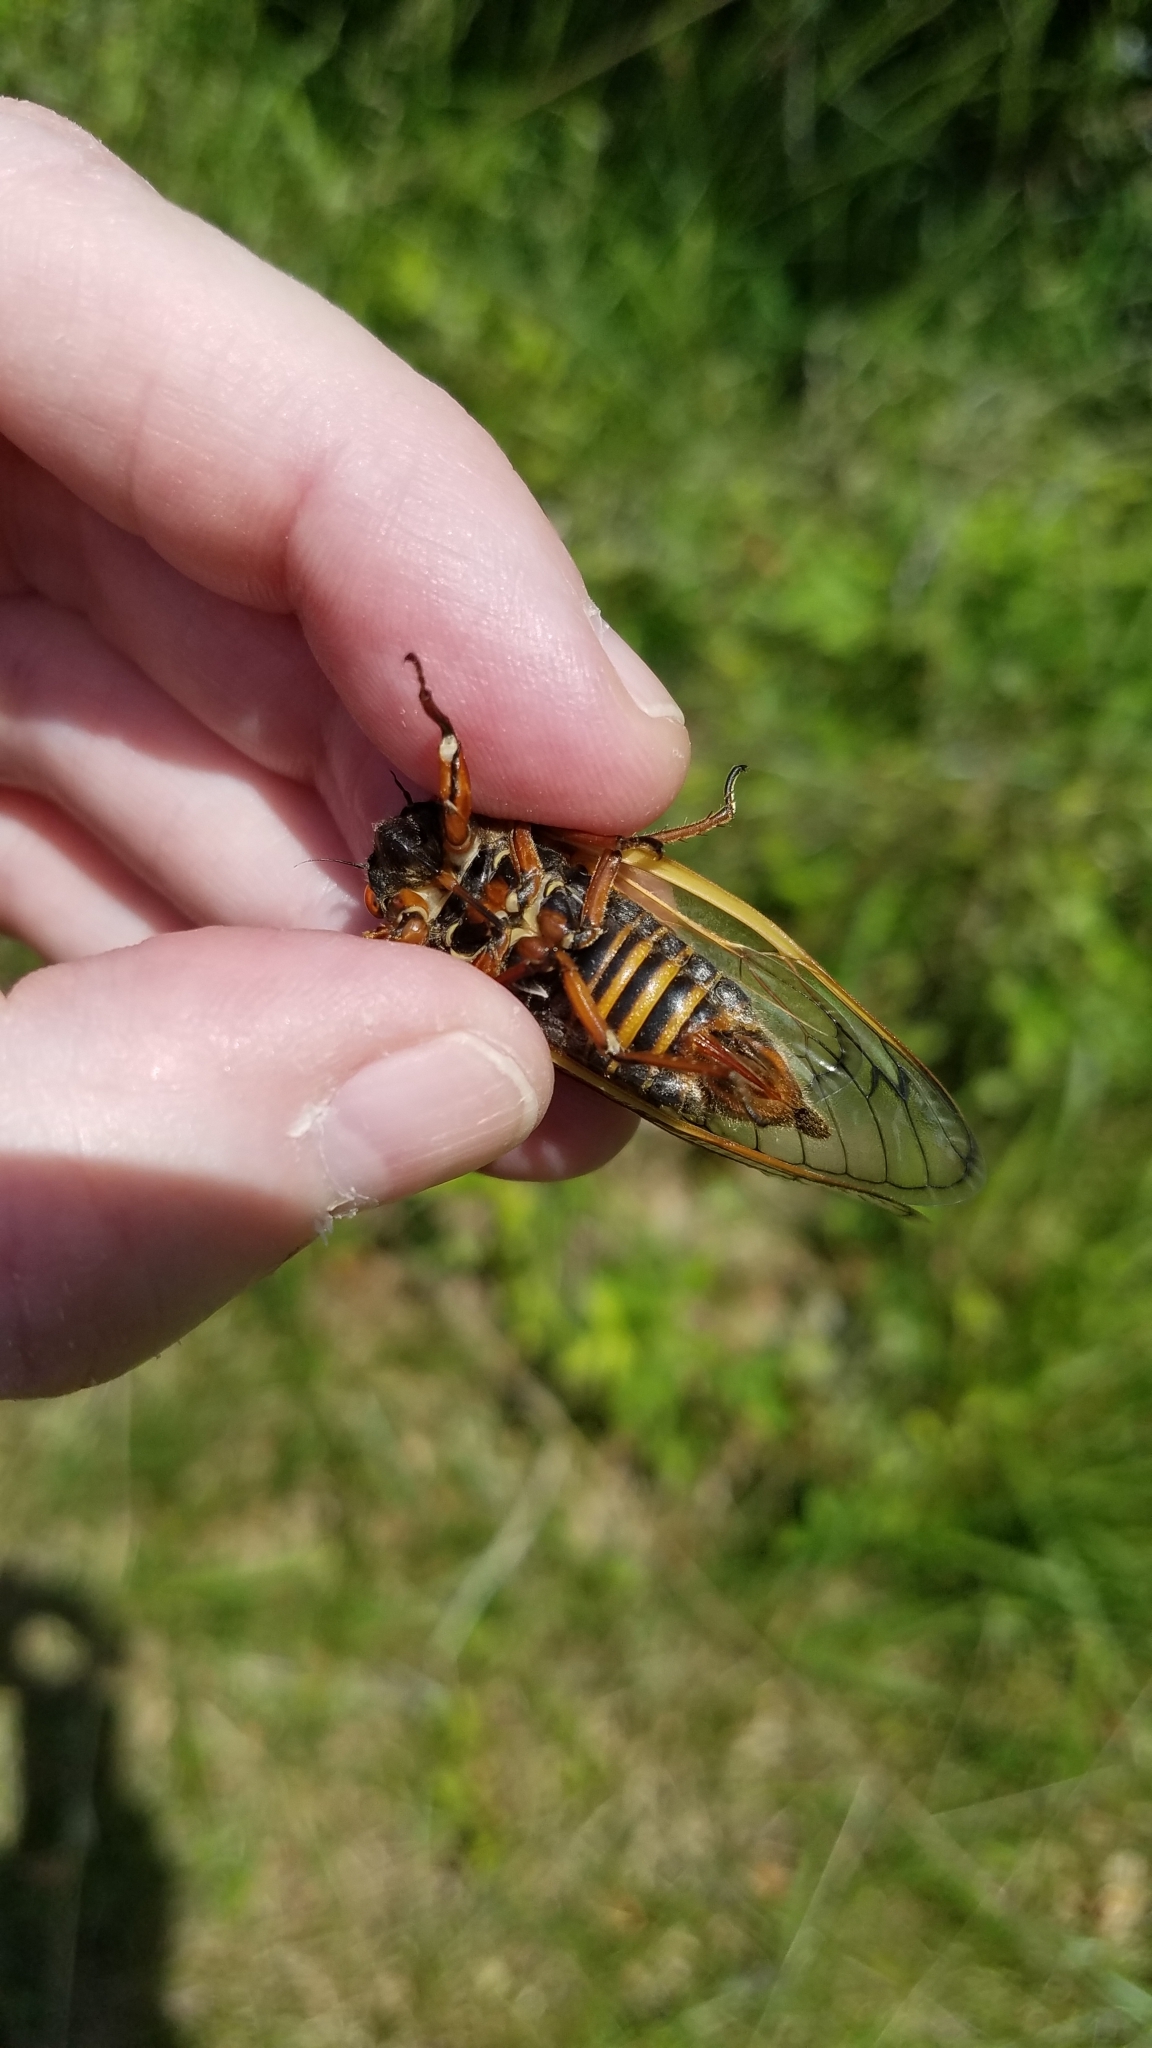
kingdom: Animalia
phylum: Arthropoda
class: Insecta
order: Hemiptera
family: Cicadidae
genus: Magicicada
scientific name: Magicicada septendecim
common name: Periodical cicada
